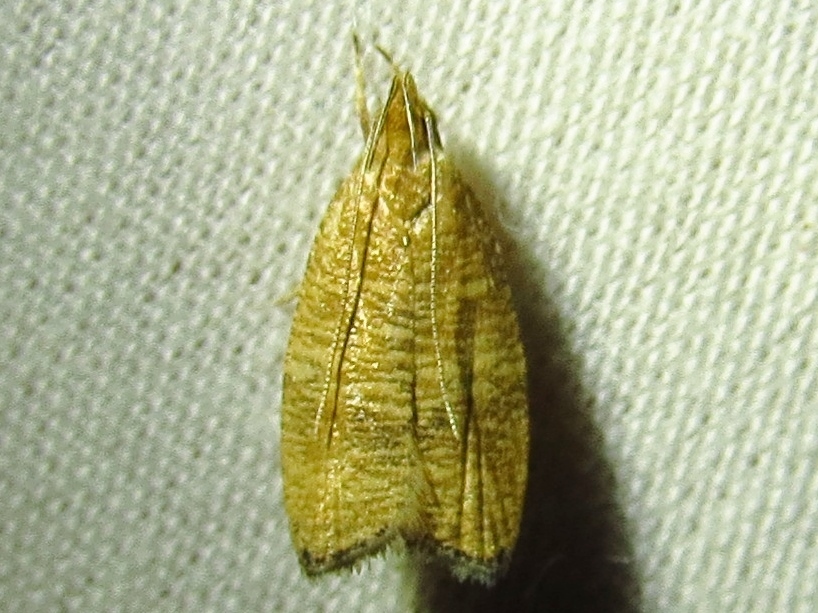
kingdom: Animalia
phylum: Arthropoda
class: Insecta
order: Lepidoptera
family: Depressariidae
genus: Psilocorsis
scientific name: Psilocorsis cryptolechiella
